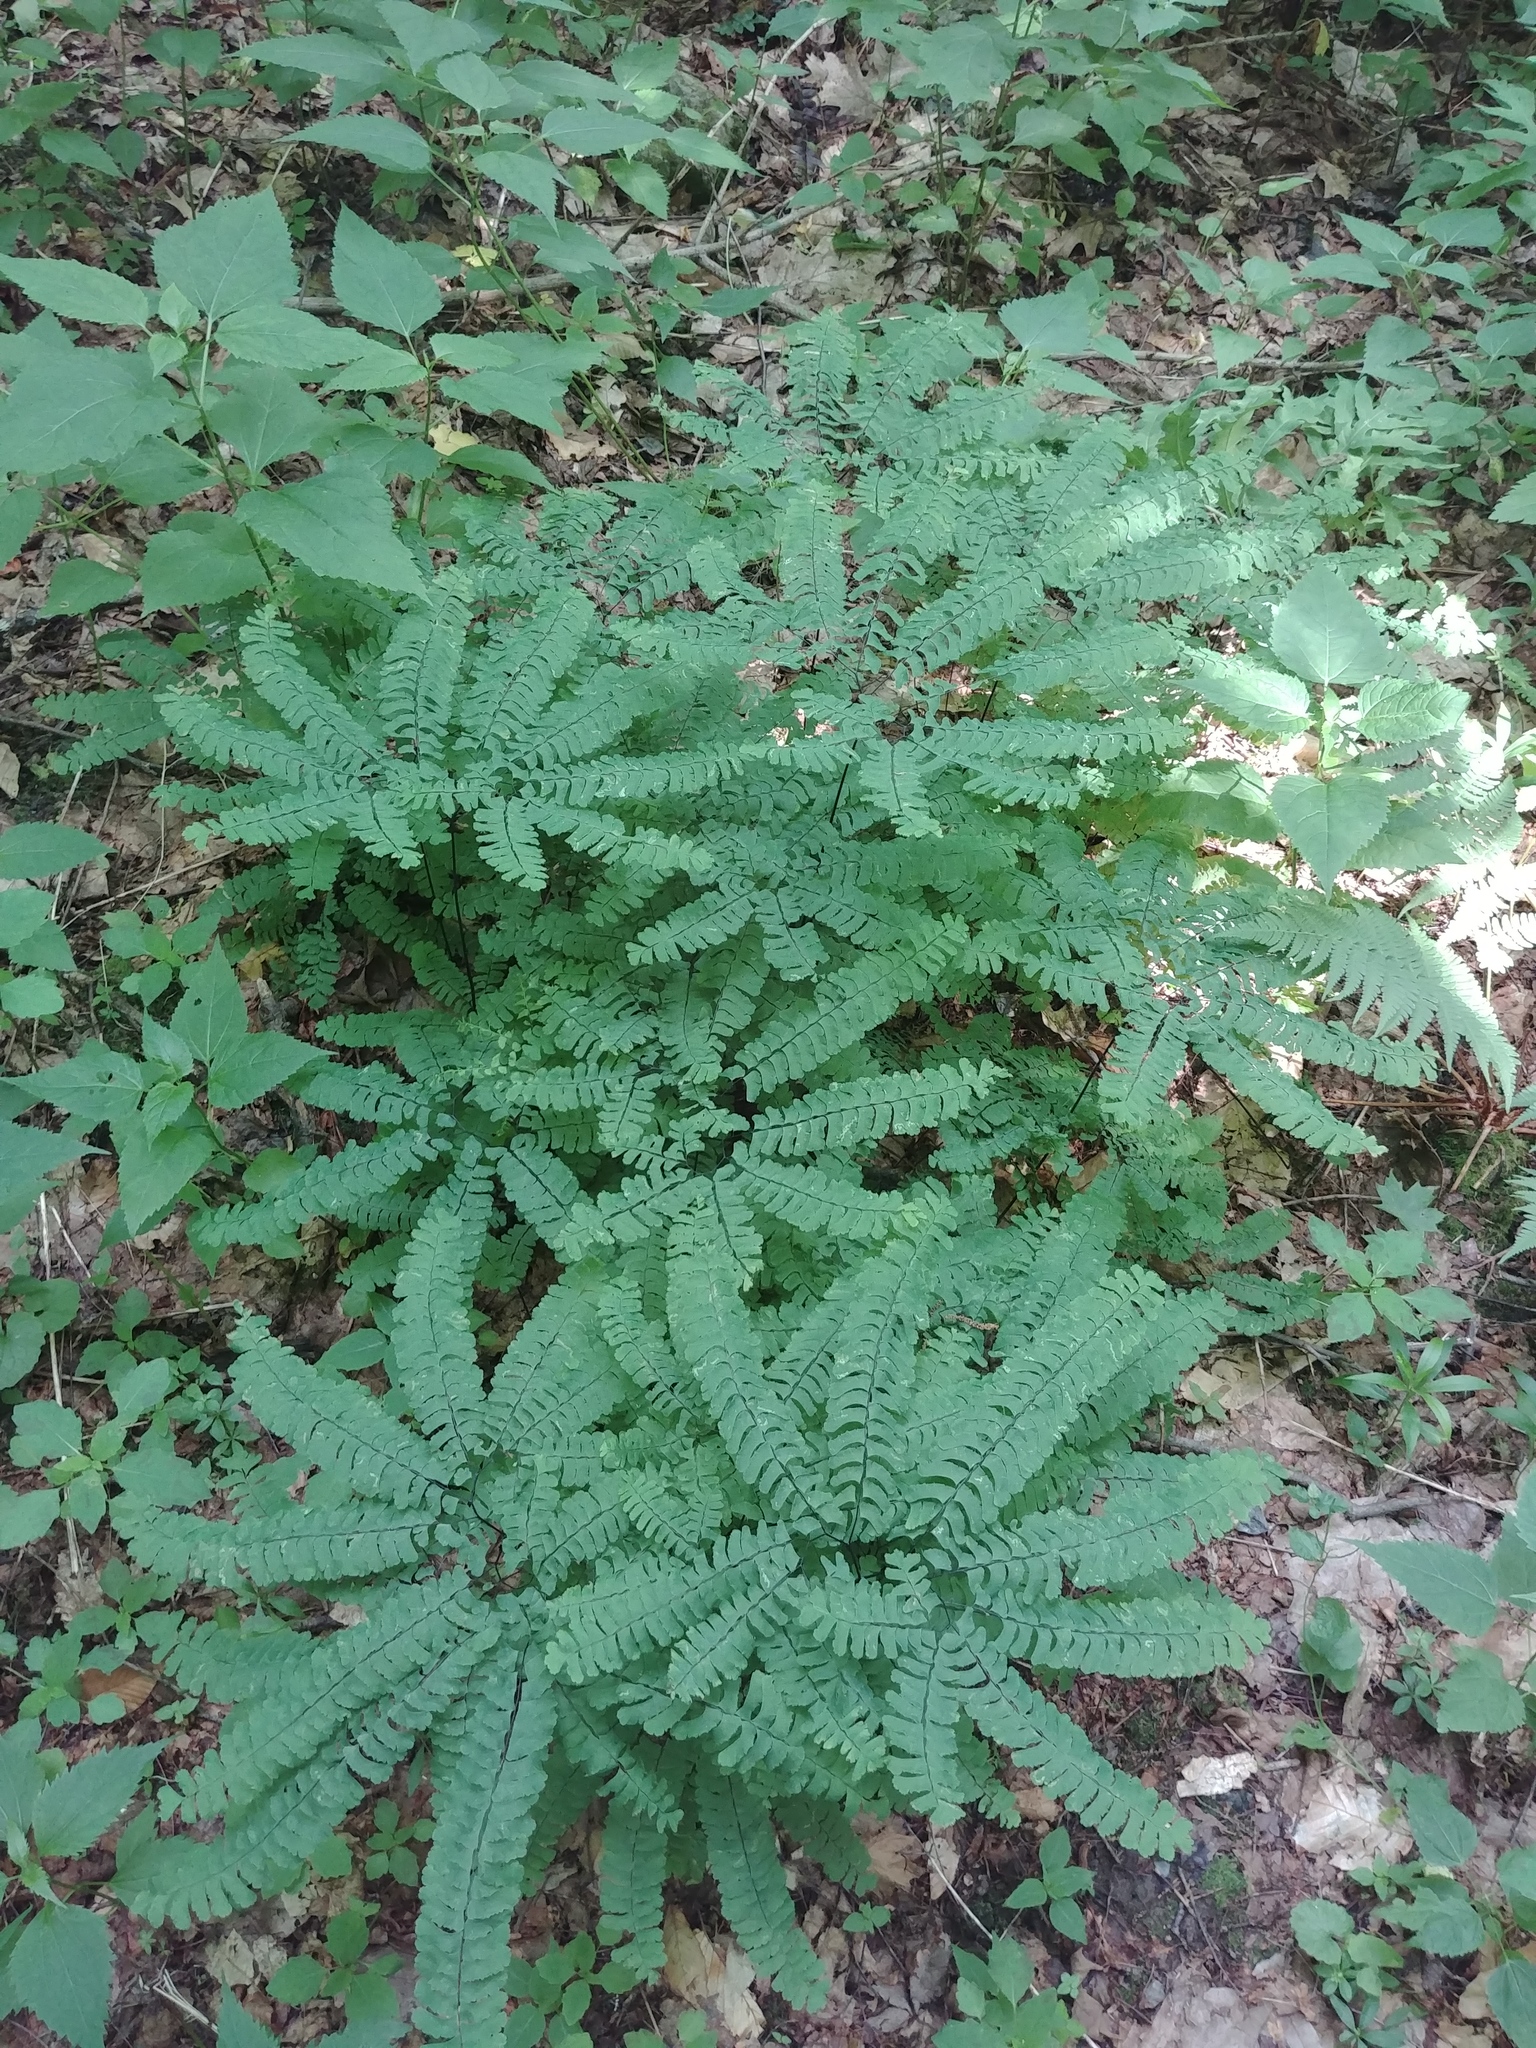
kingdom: Plantae
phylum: Tracheophyta
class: Polypodiopsida
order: Polypodiales
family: Pteridaceae
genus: Adiantum
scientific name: Adiantum pedatum
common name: Five-finger fern
